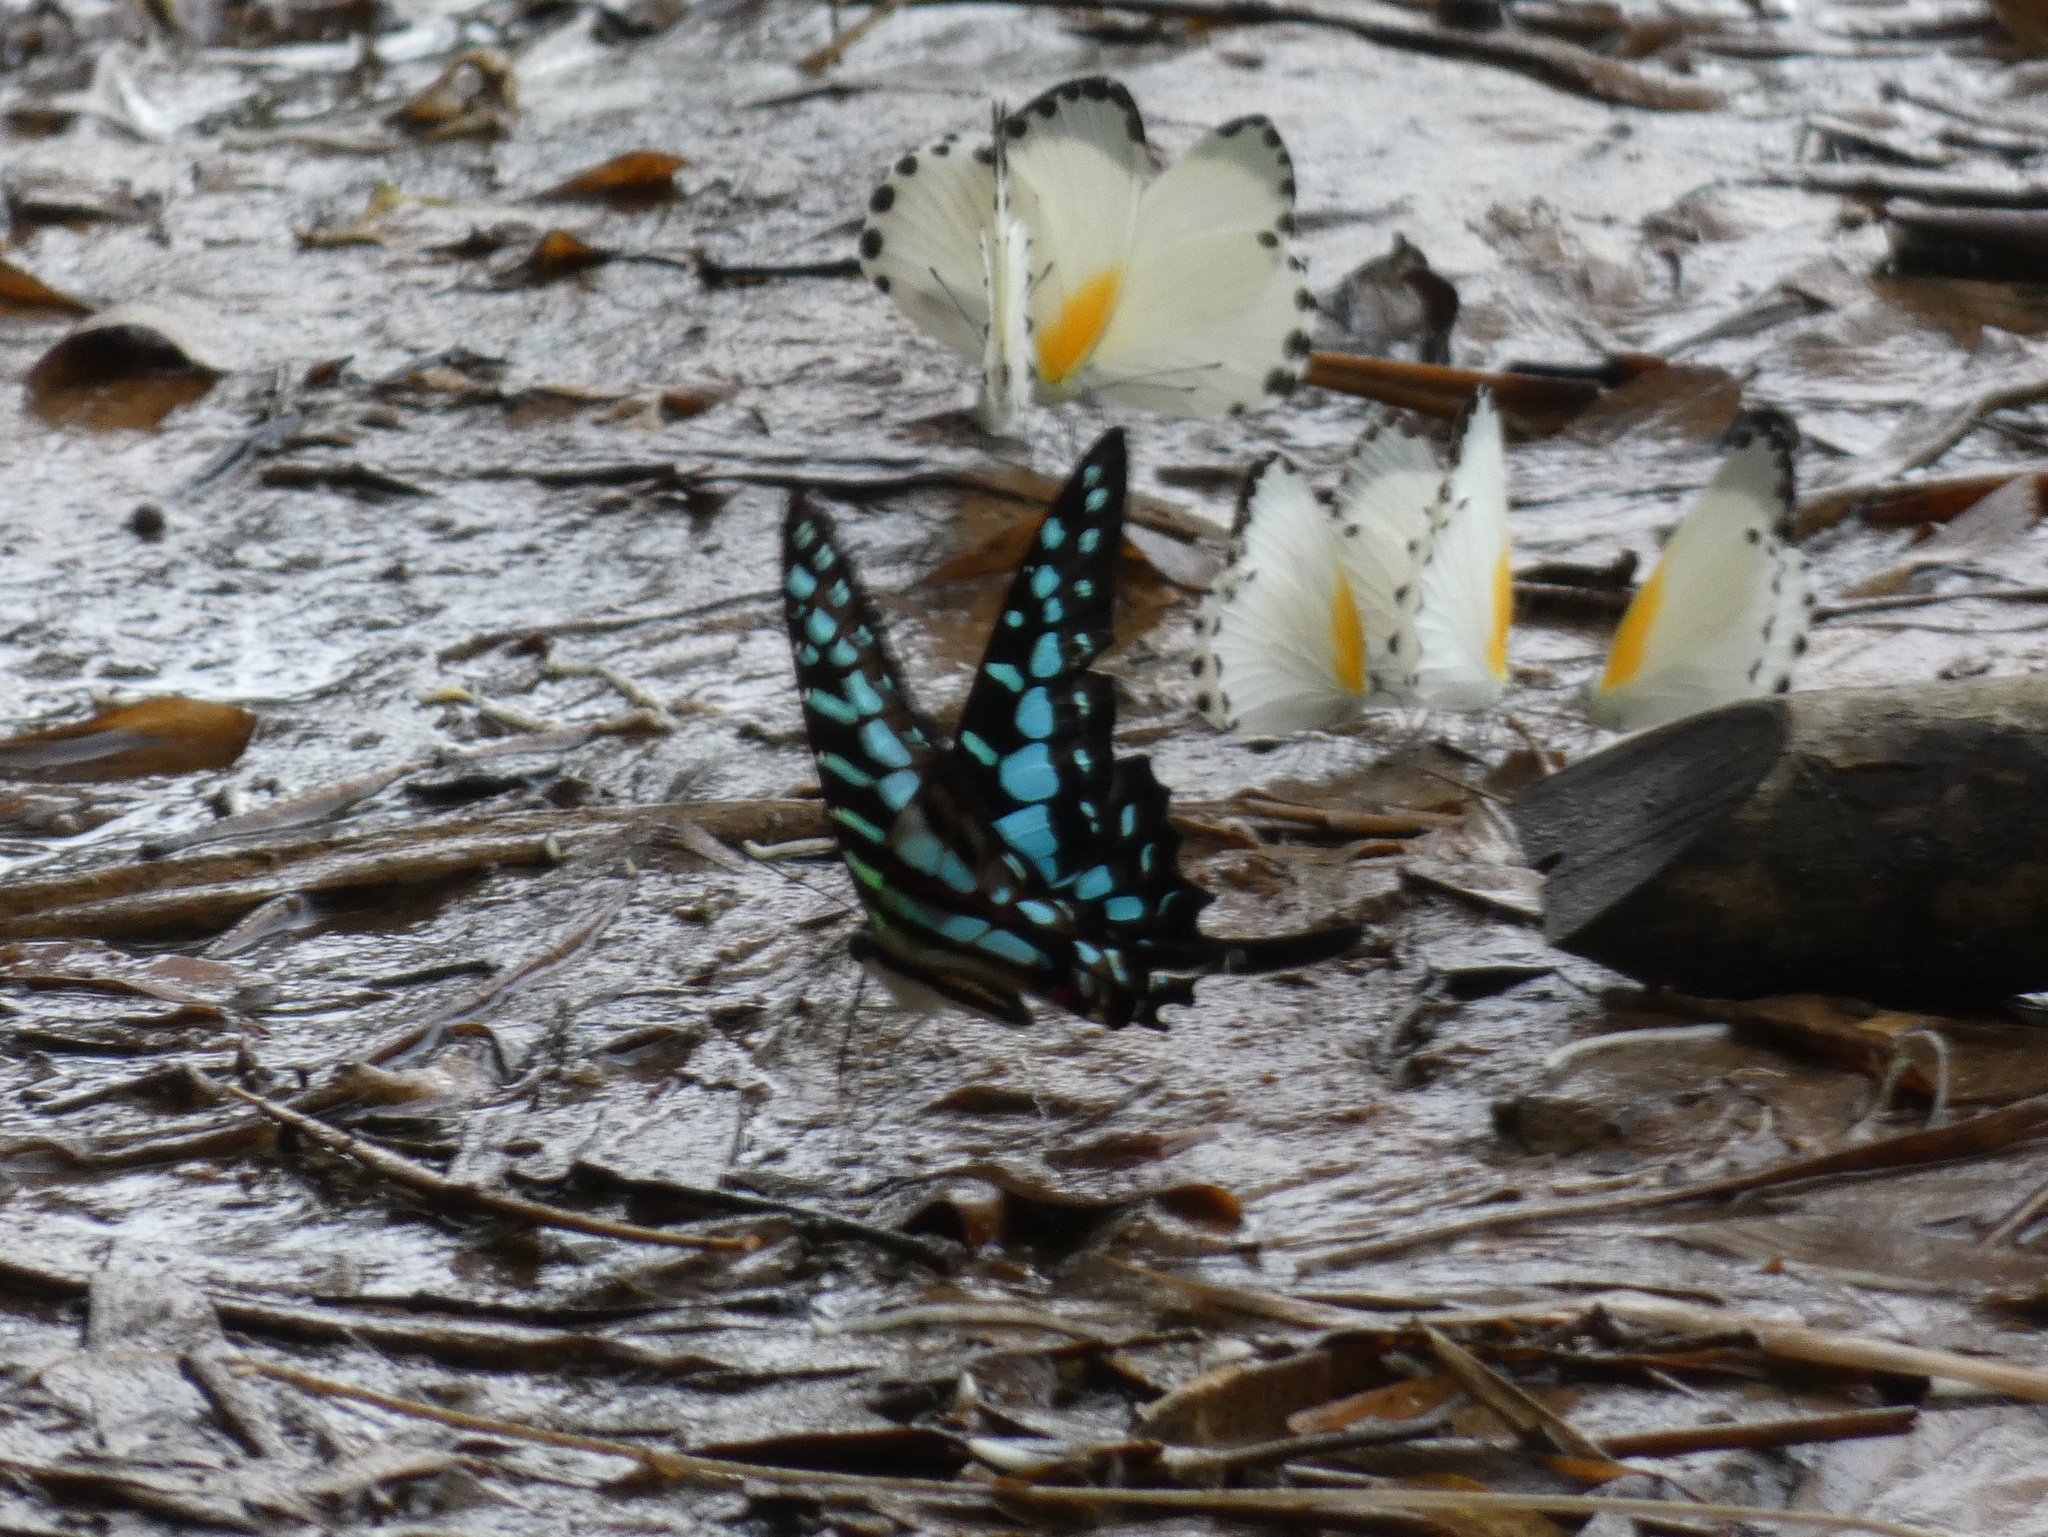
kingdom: Animalia
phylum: Arthropoda
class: Insecta
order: Lepidoptera
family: Papilionidae
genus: Graphium
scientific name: Graphium policenes
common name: Common swordtail
